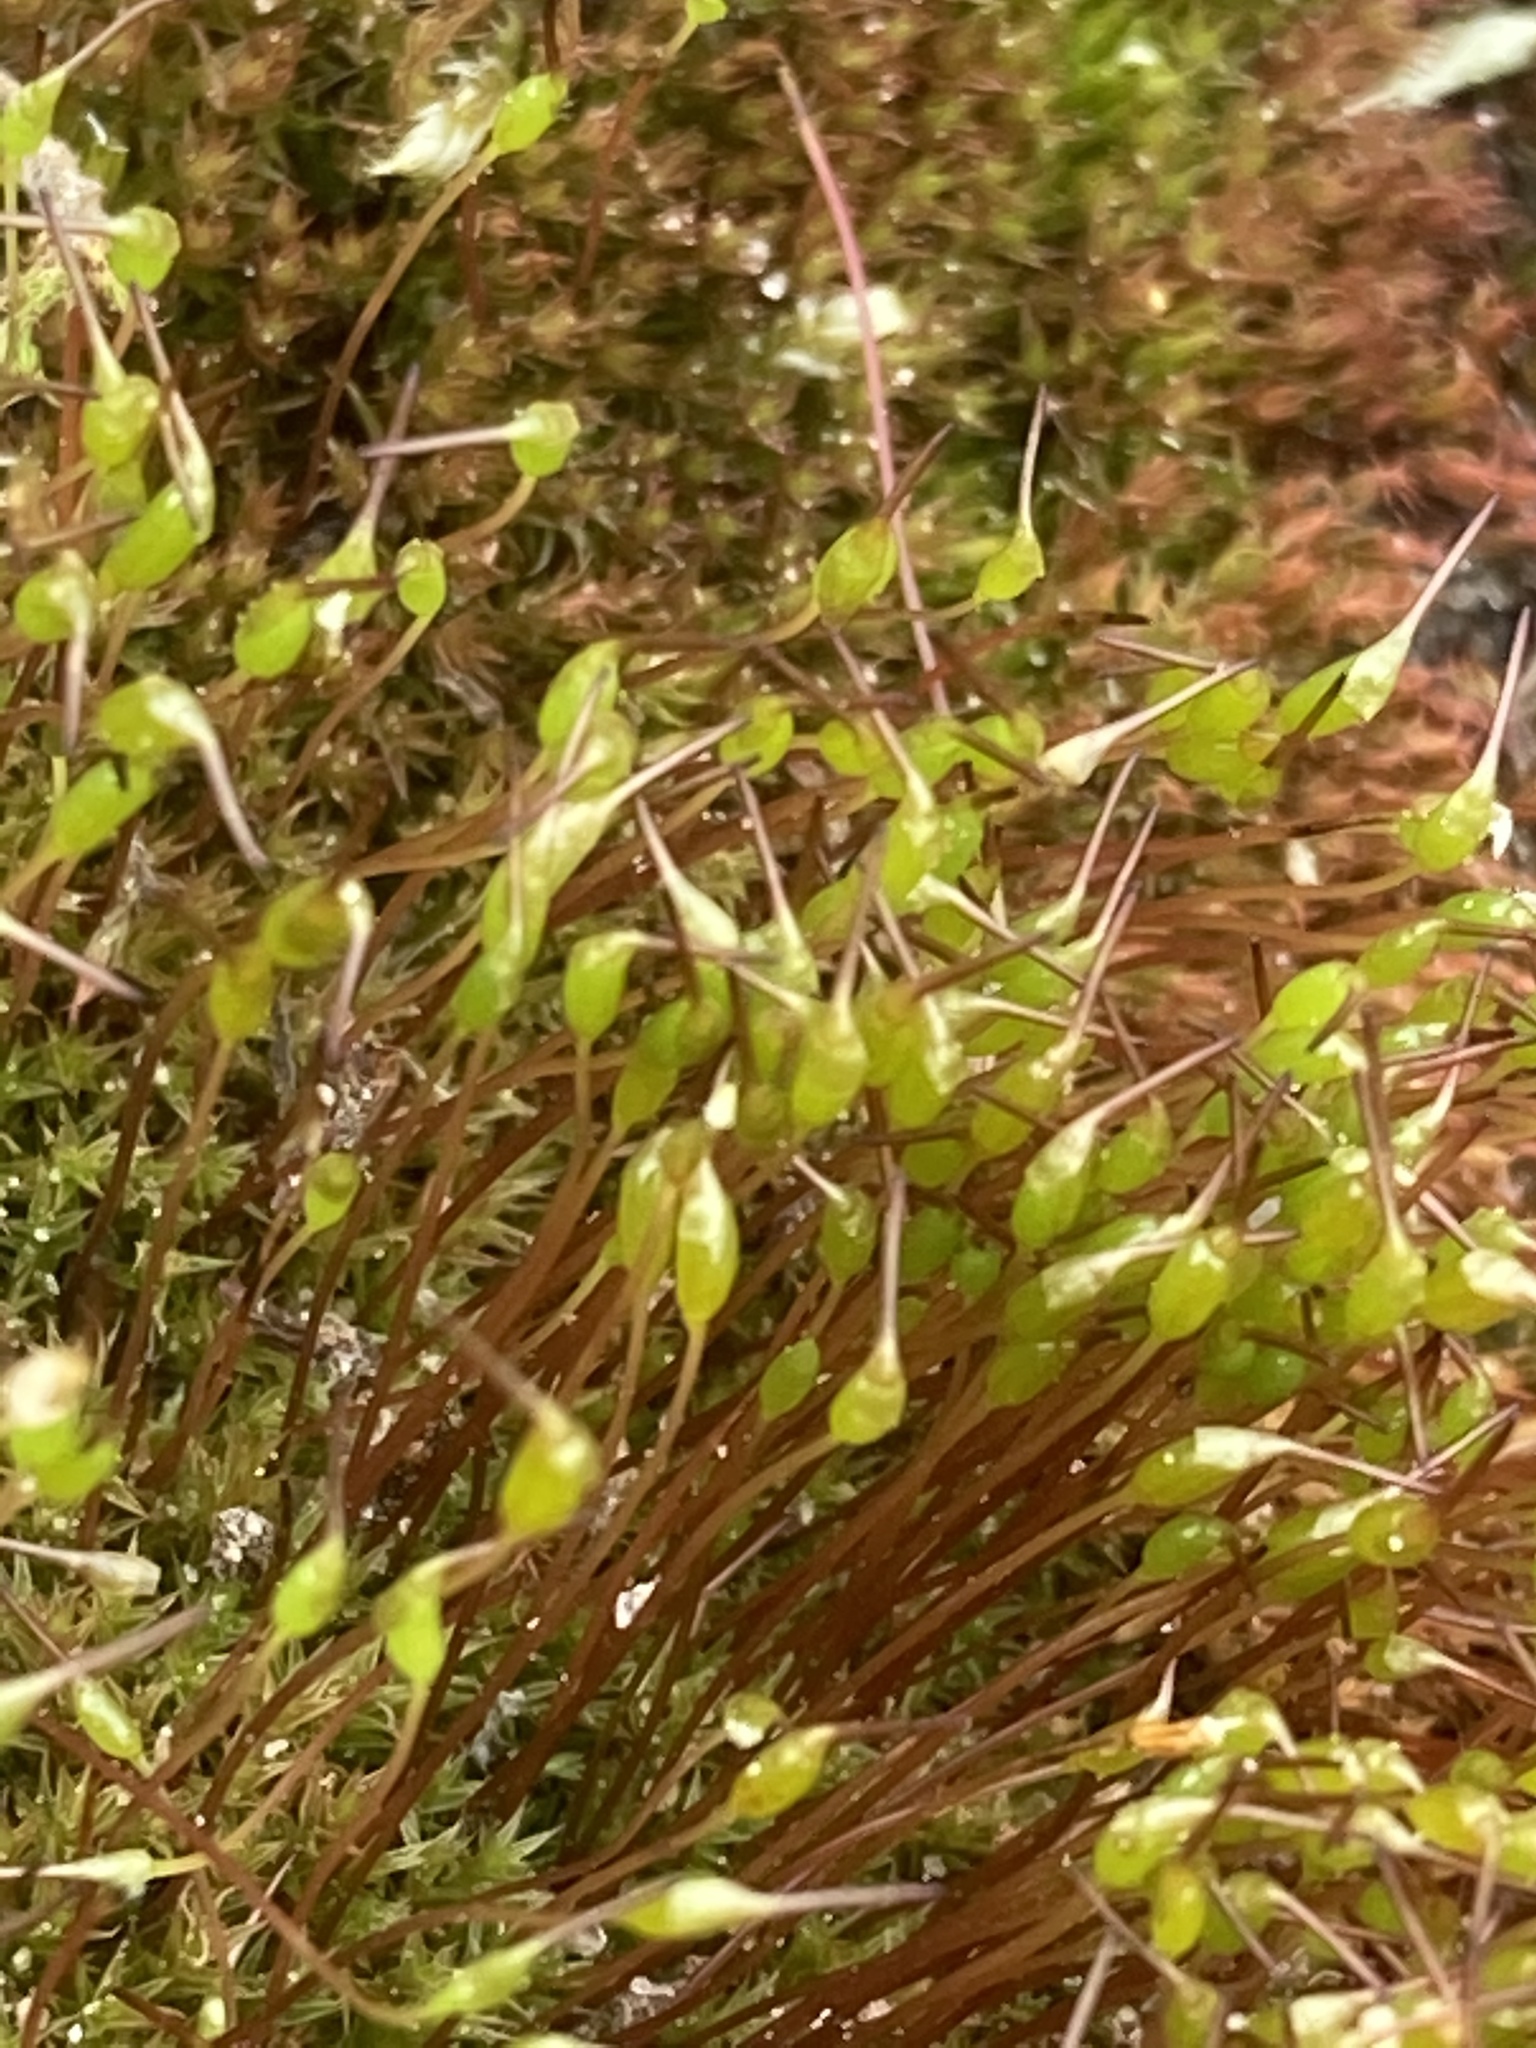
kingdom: Plantae
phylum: Bryophyta
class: Bryopsida
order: Dicranales
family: Ditrichaceae
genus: Ceratodon
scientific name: Ceratodon purpureus
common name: Redshank
